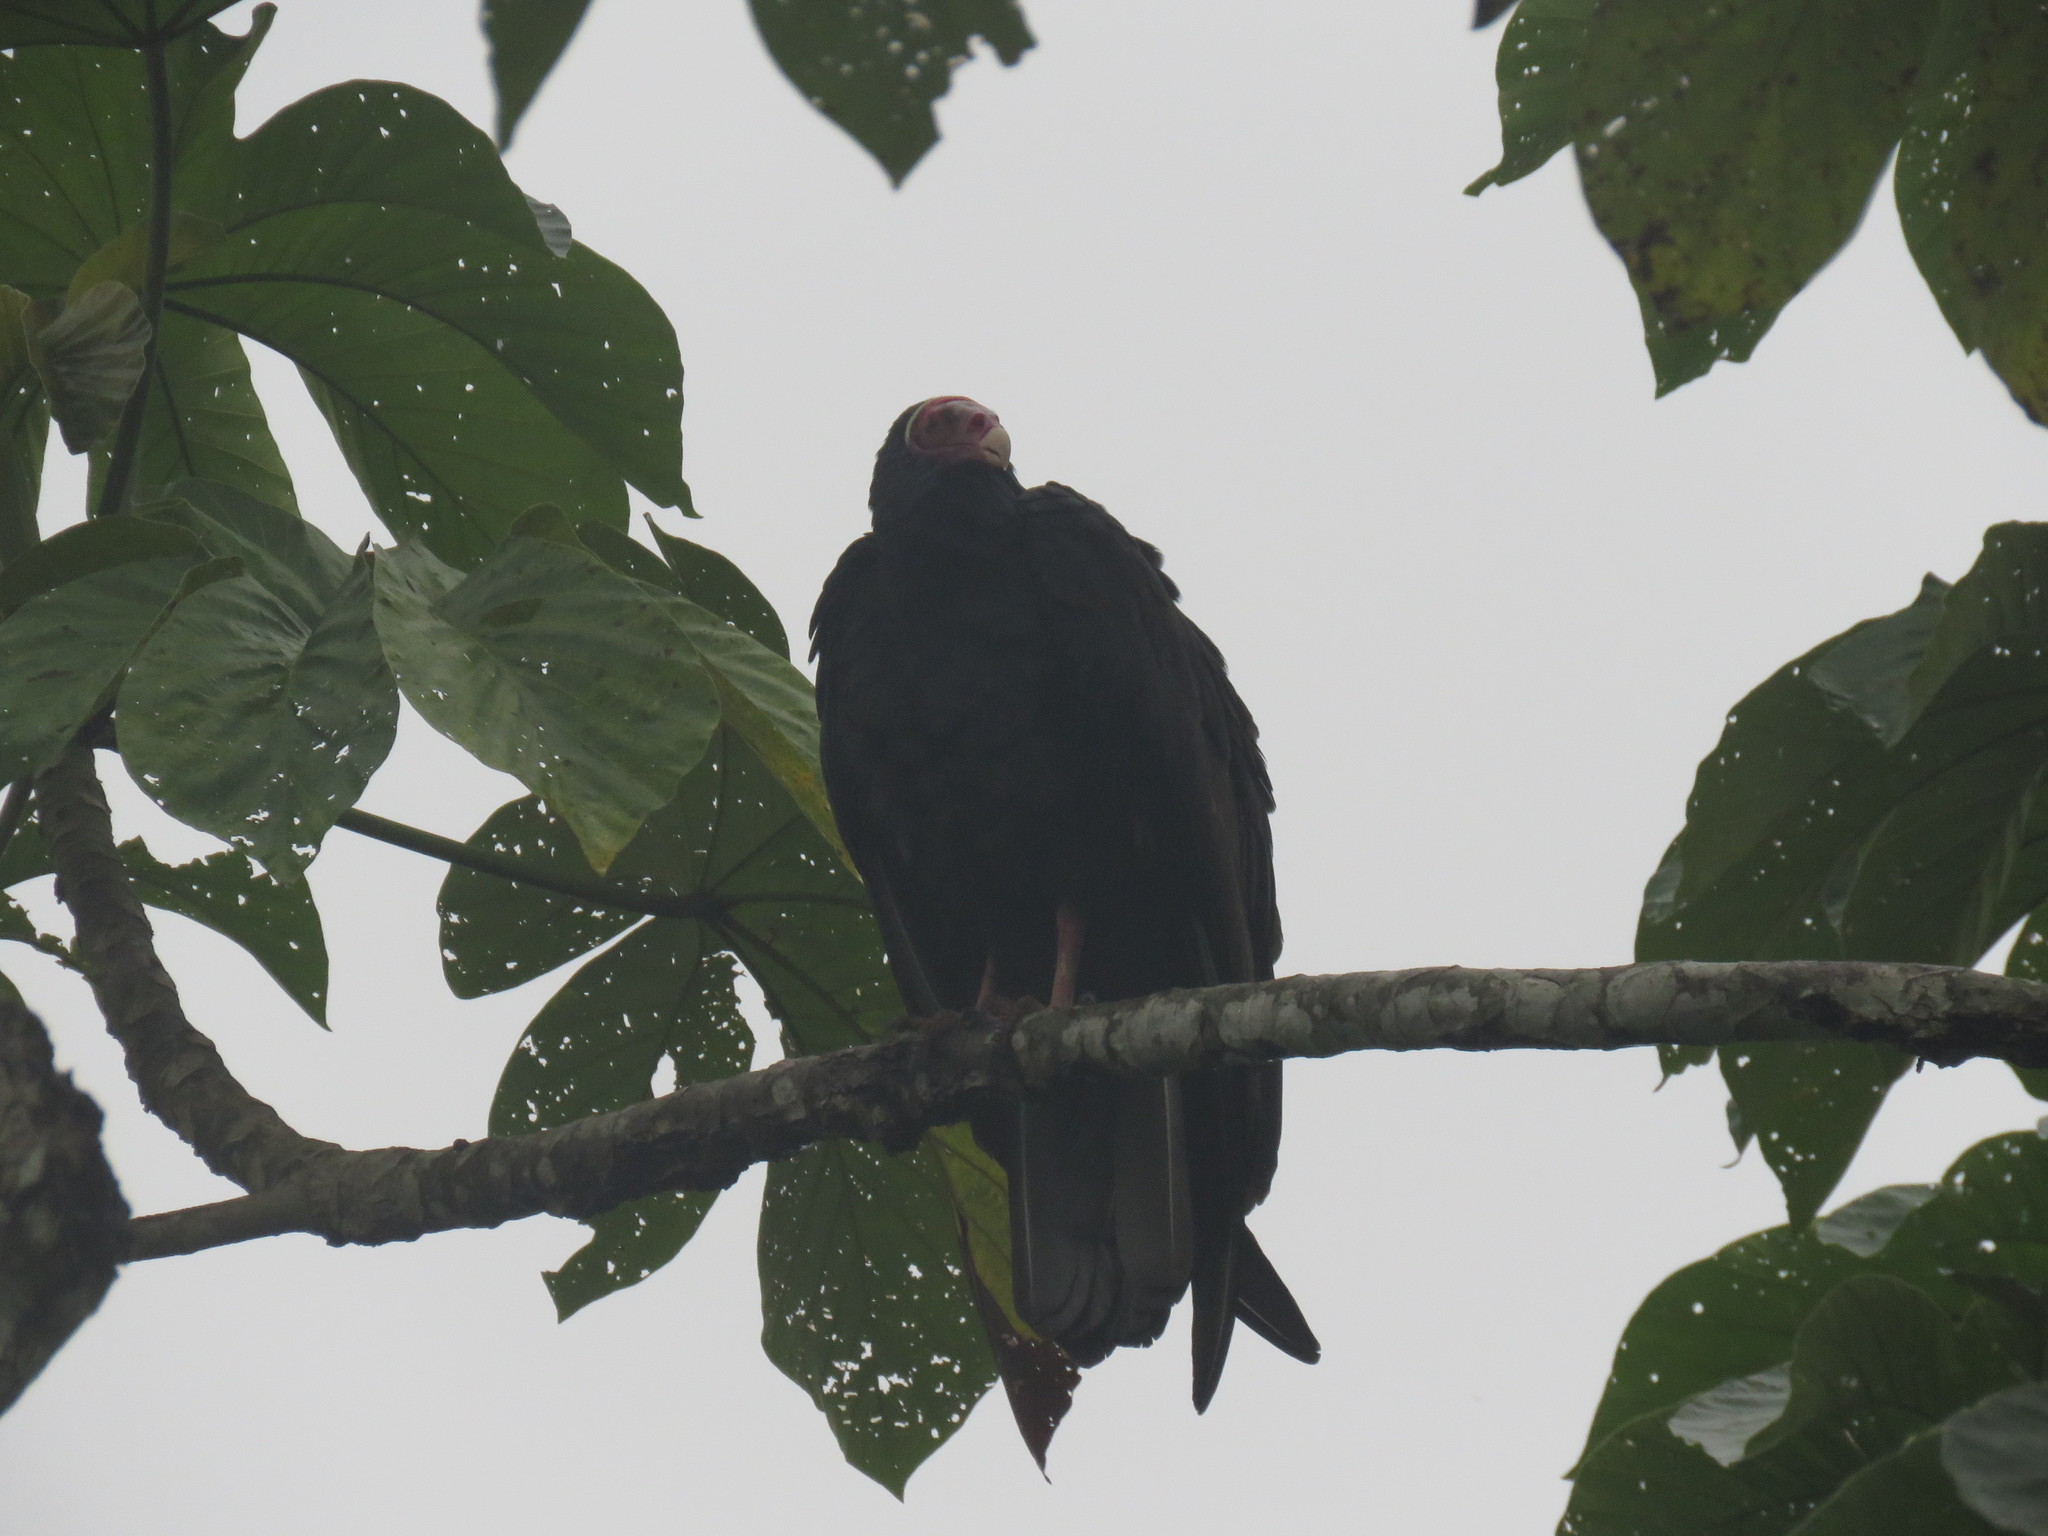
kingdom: Animalia
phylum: Chordata
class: Aves
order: Accipitriformes
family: Cathartidae
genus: Cathartes
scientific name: Cathartes aura
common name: Turkey vulture
